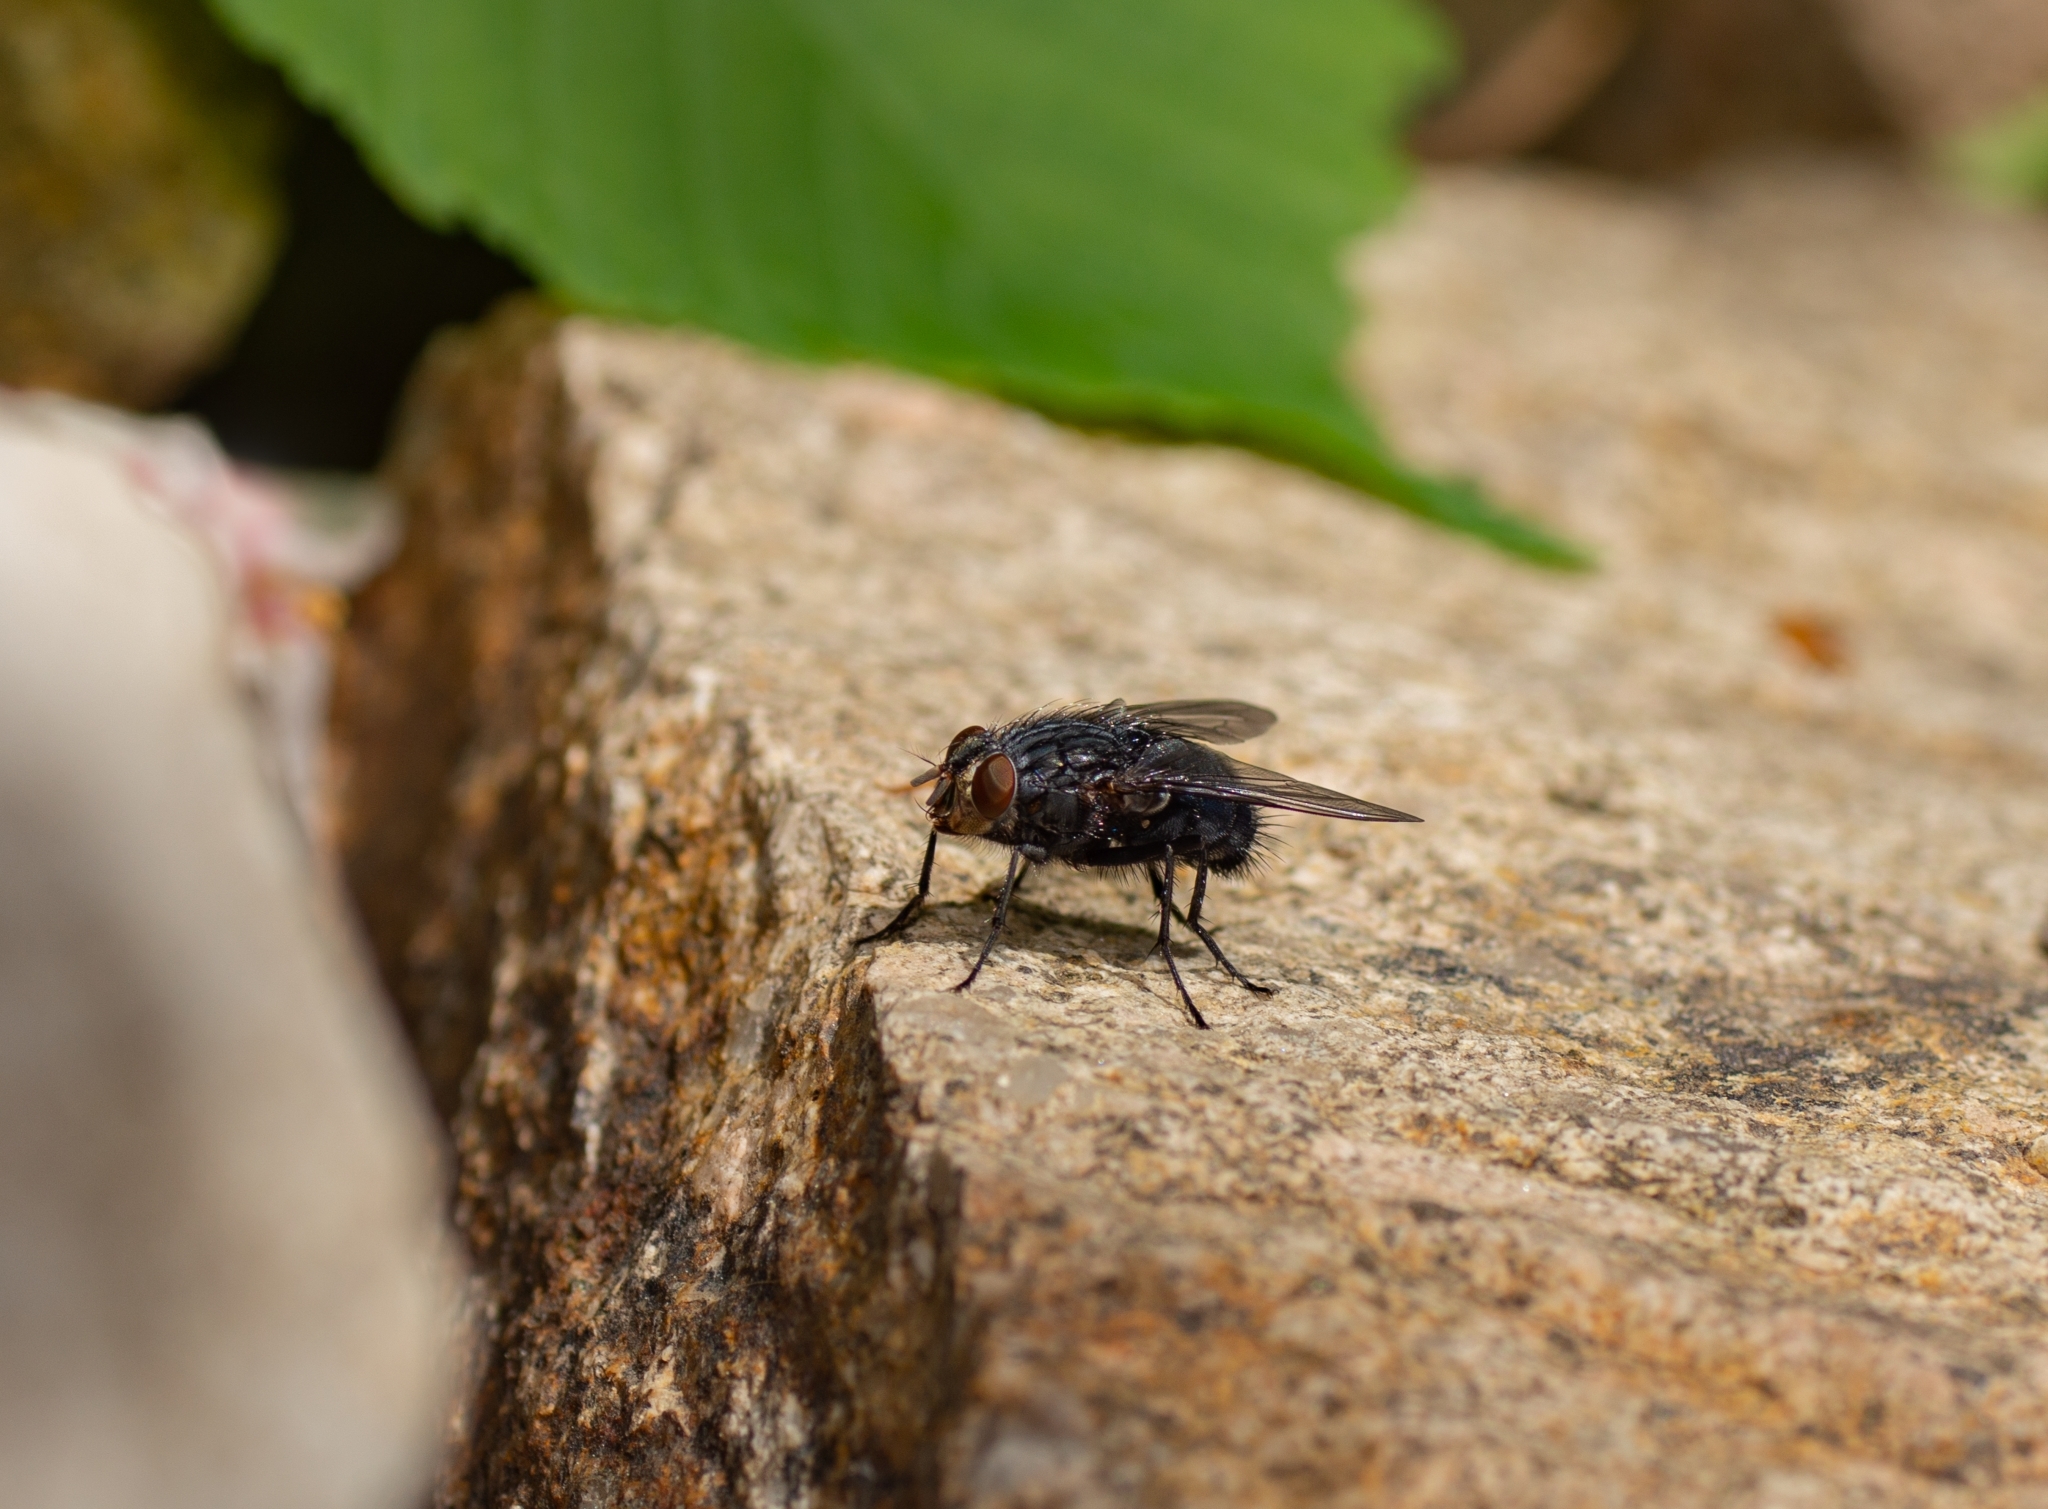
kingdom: Animalia
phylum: Arthropoda
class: Insecta
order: Diptera
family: Calliphoridae
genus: Calliphora
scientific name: Calliphora vicina
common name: Common blow flie
